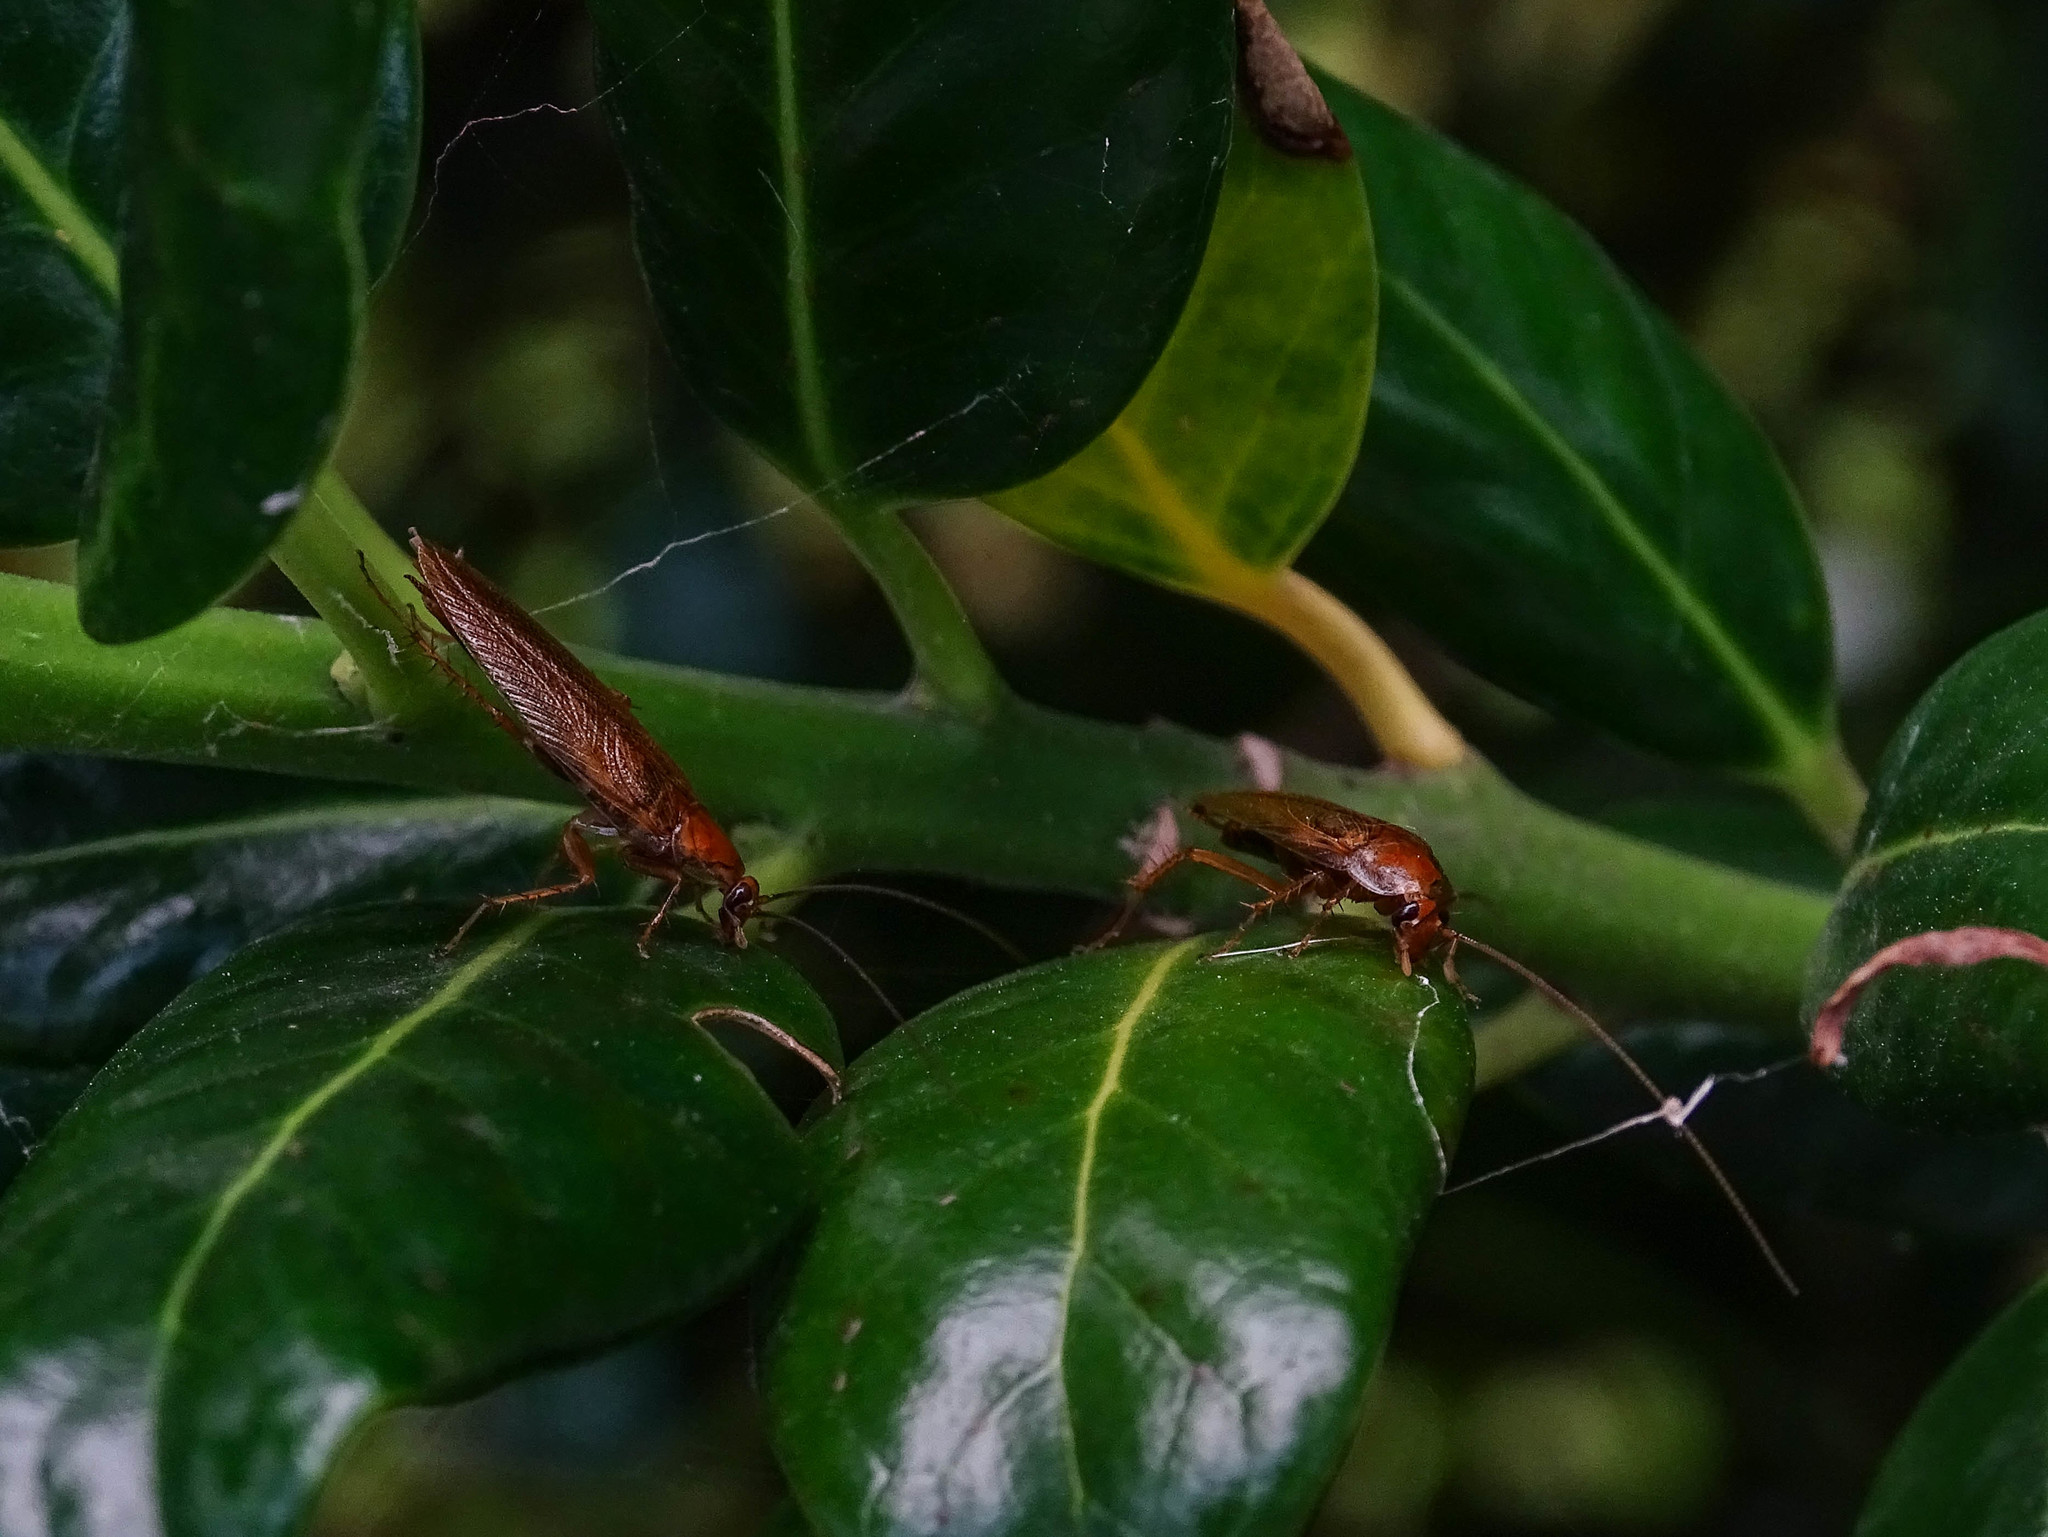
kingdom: Animalia
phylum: Arthropoda
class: Insecta
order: Blattodea
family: Ectobiidae
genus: Ectobius
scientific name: Ectobius vittiventris
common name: Garden cockroach
